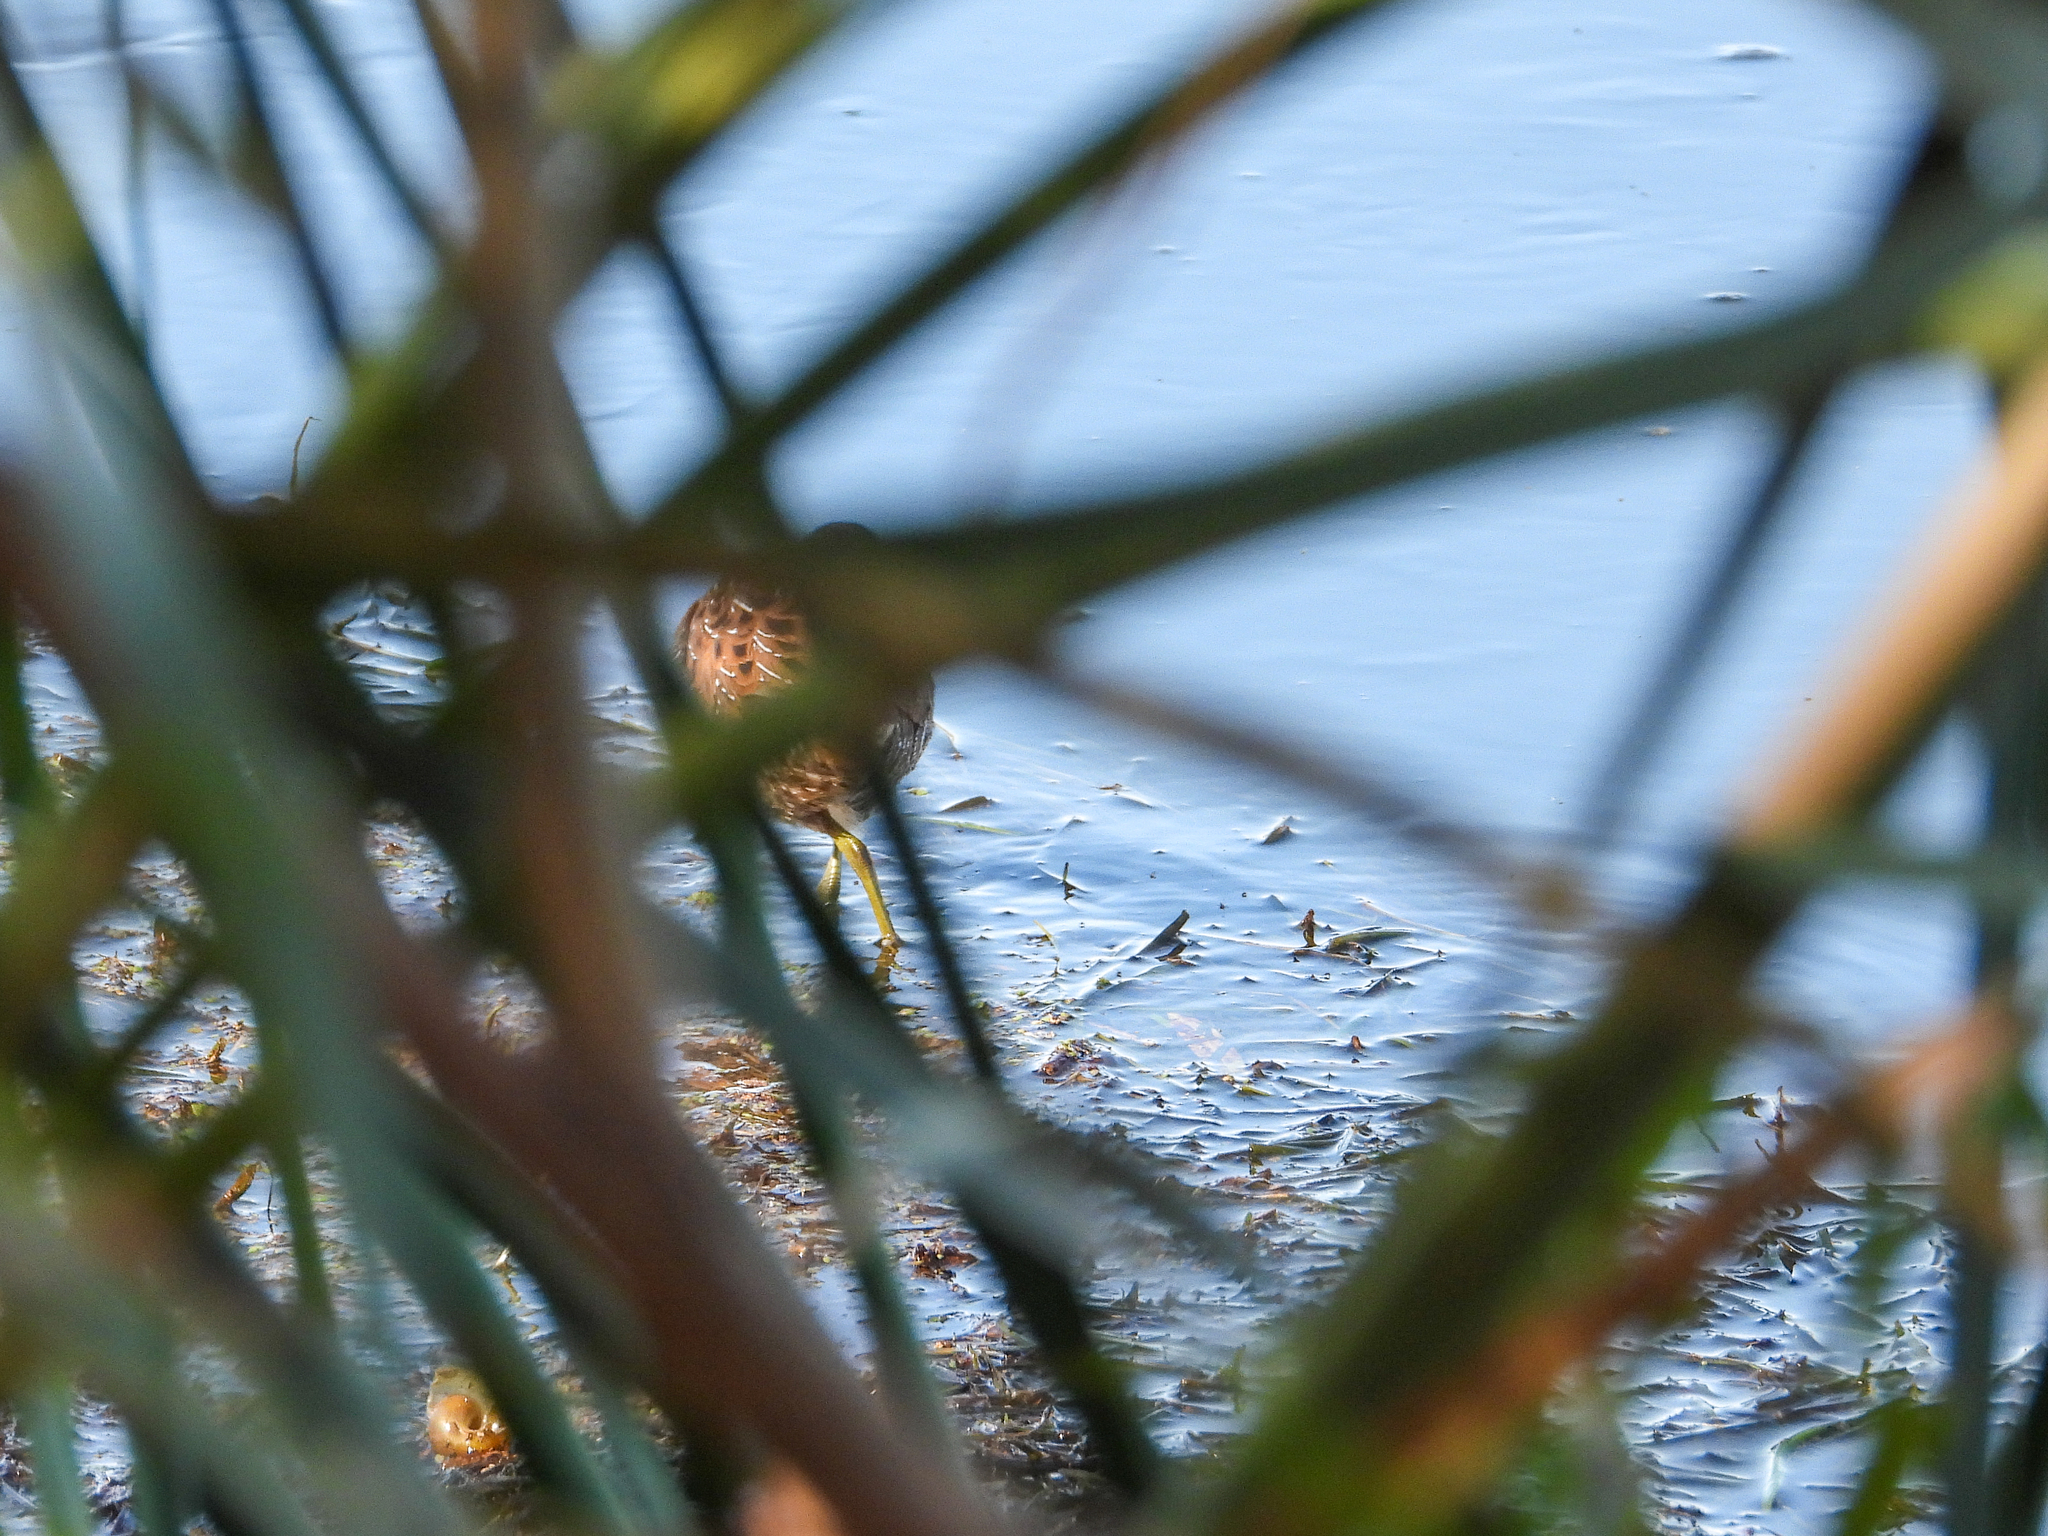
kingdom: Animalia
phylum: Chordata
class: Aves
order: Gruiformes
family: Rallidae
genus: Porzana
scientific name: Porzana carolina
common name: Sora
